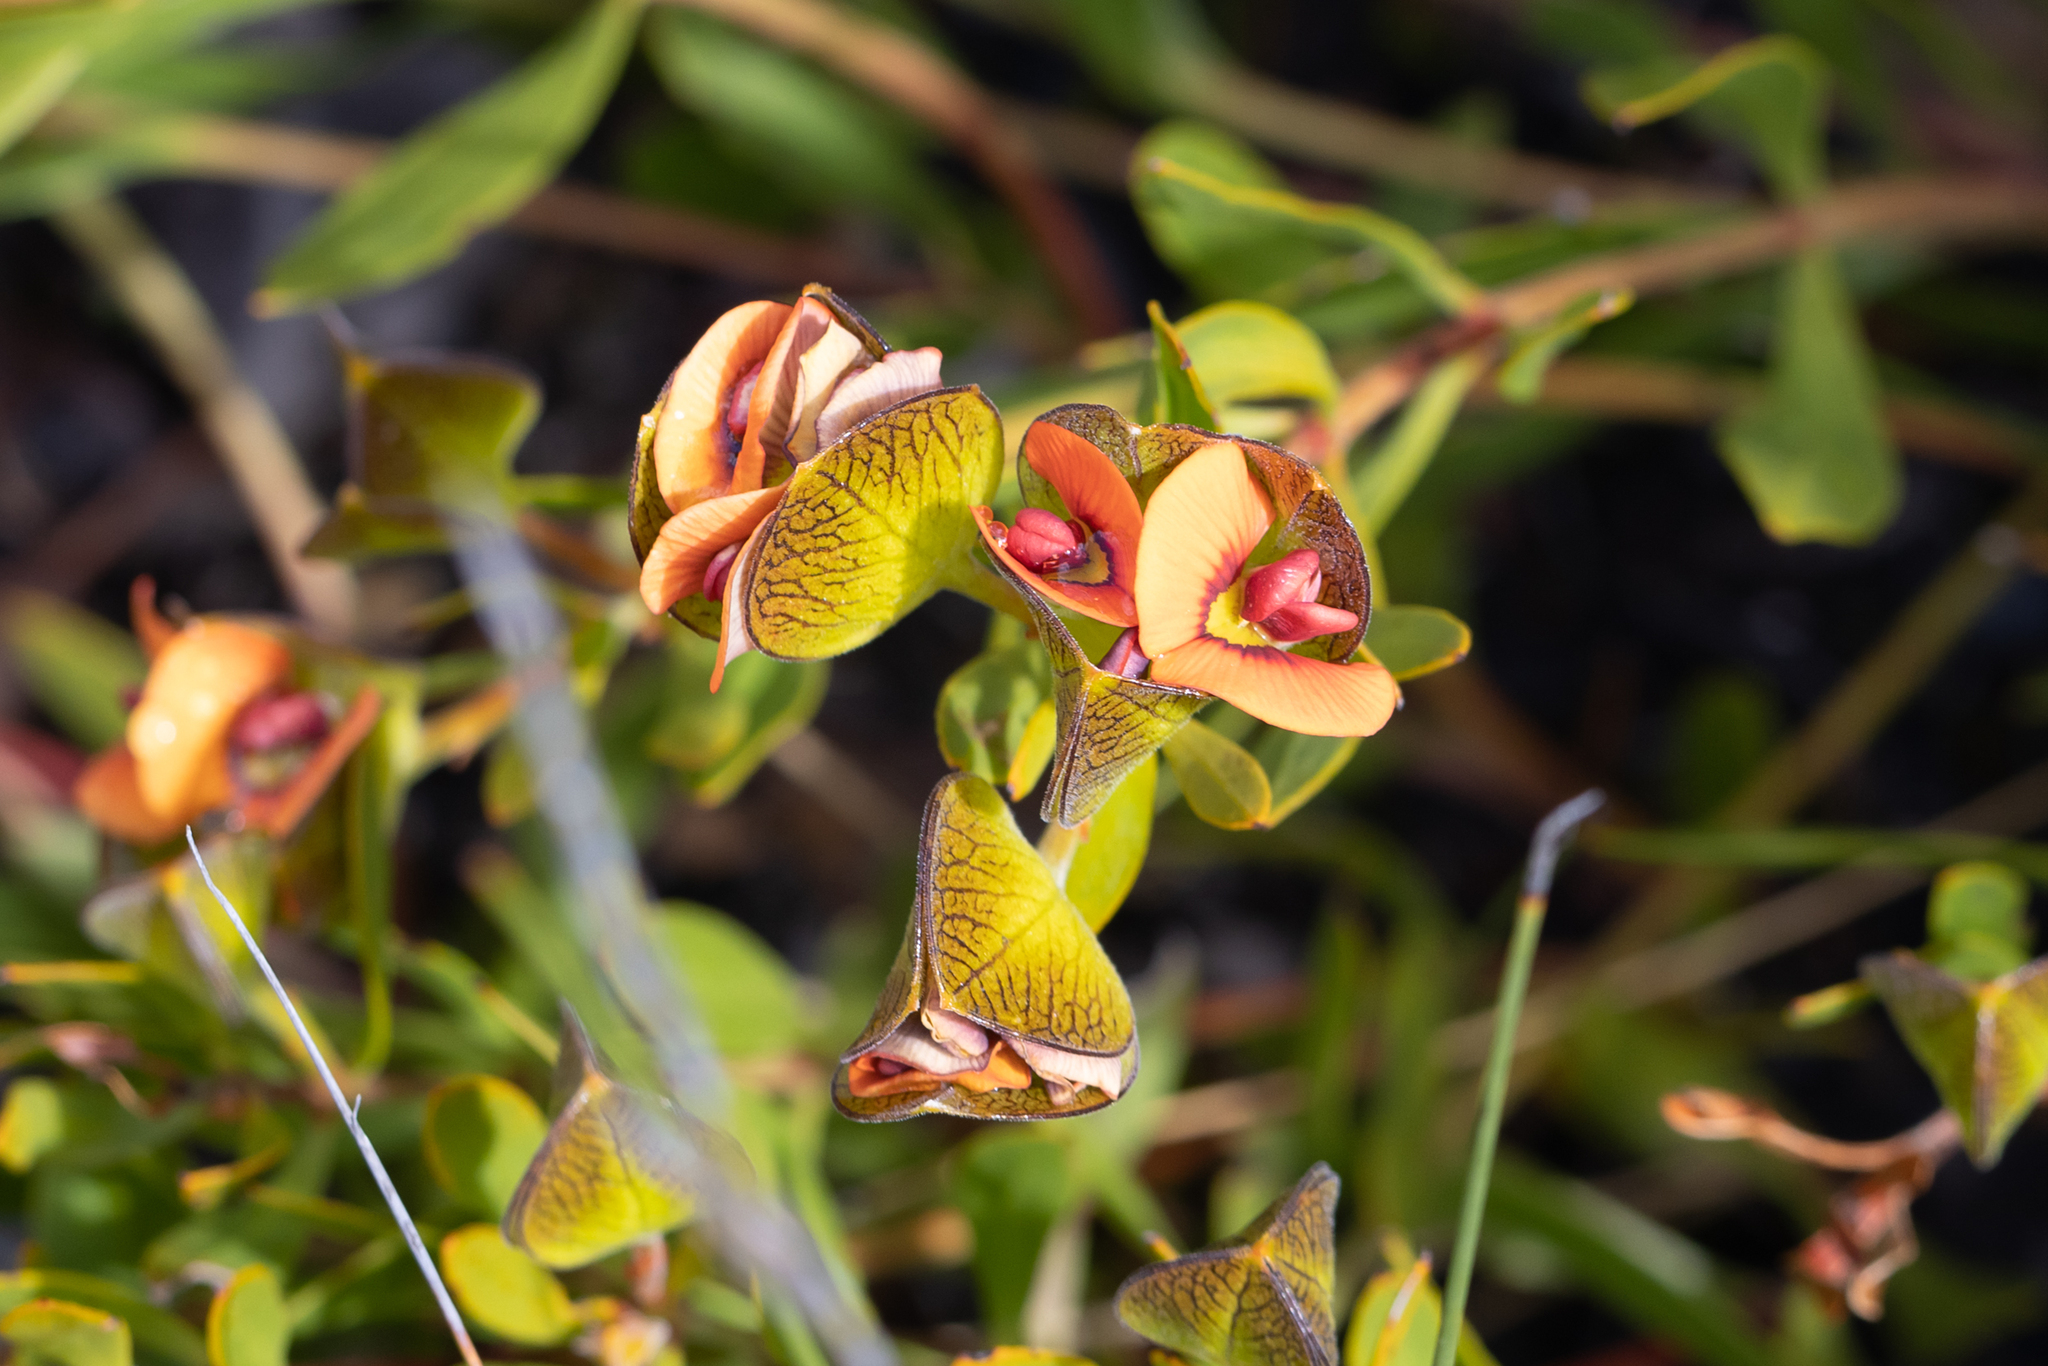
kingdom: Plantae
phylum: Tracheophyta
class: Magnoliopsida
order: Fabales
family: Fabaceae
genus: Daviesia
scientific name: Daviesia alternifolia
